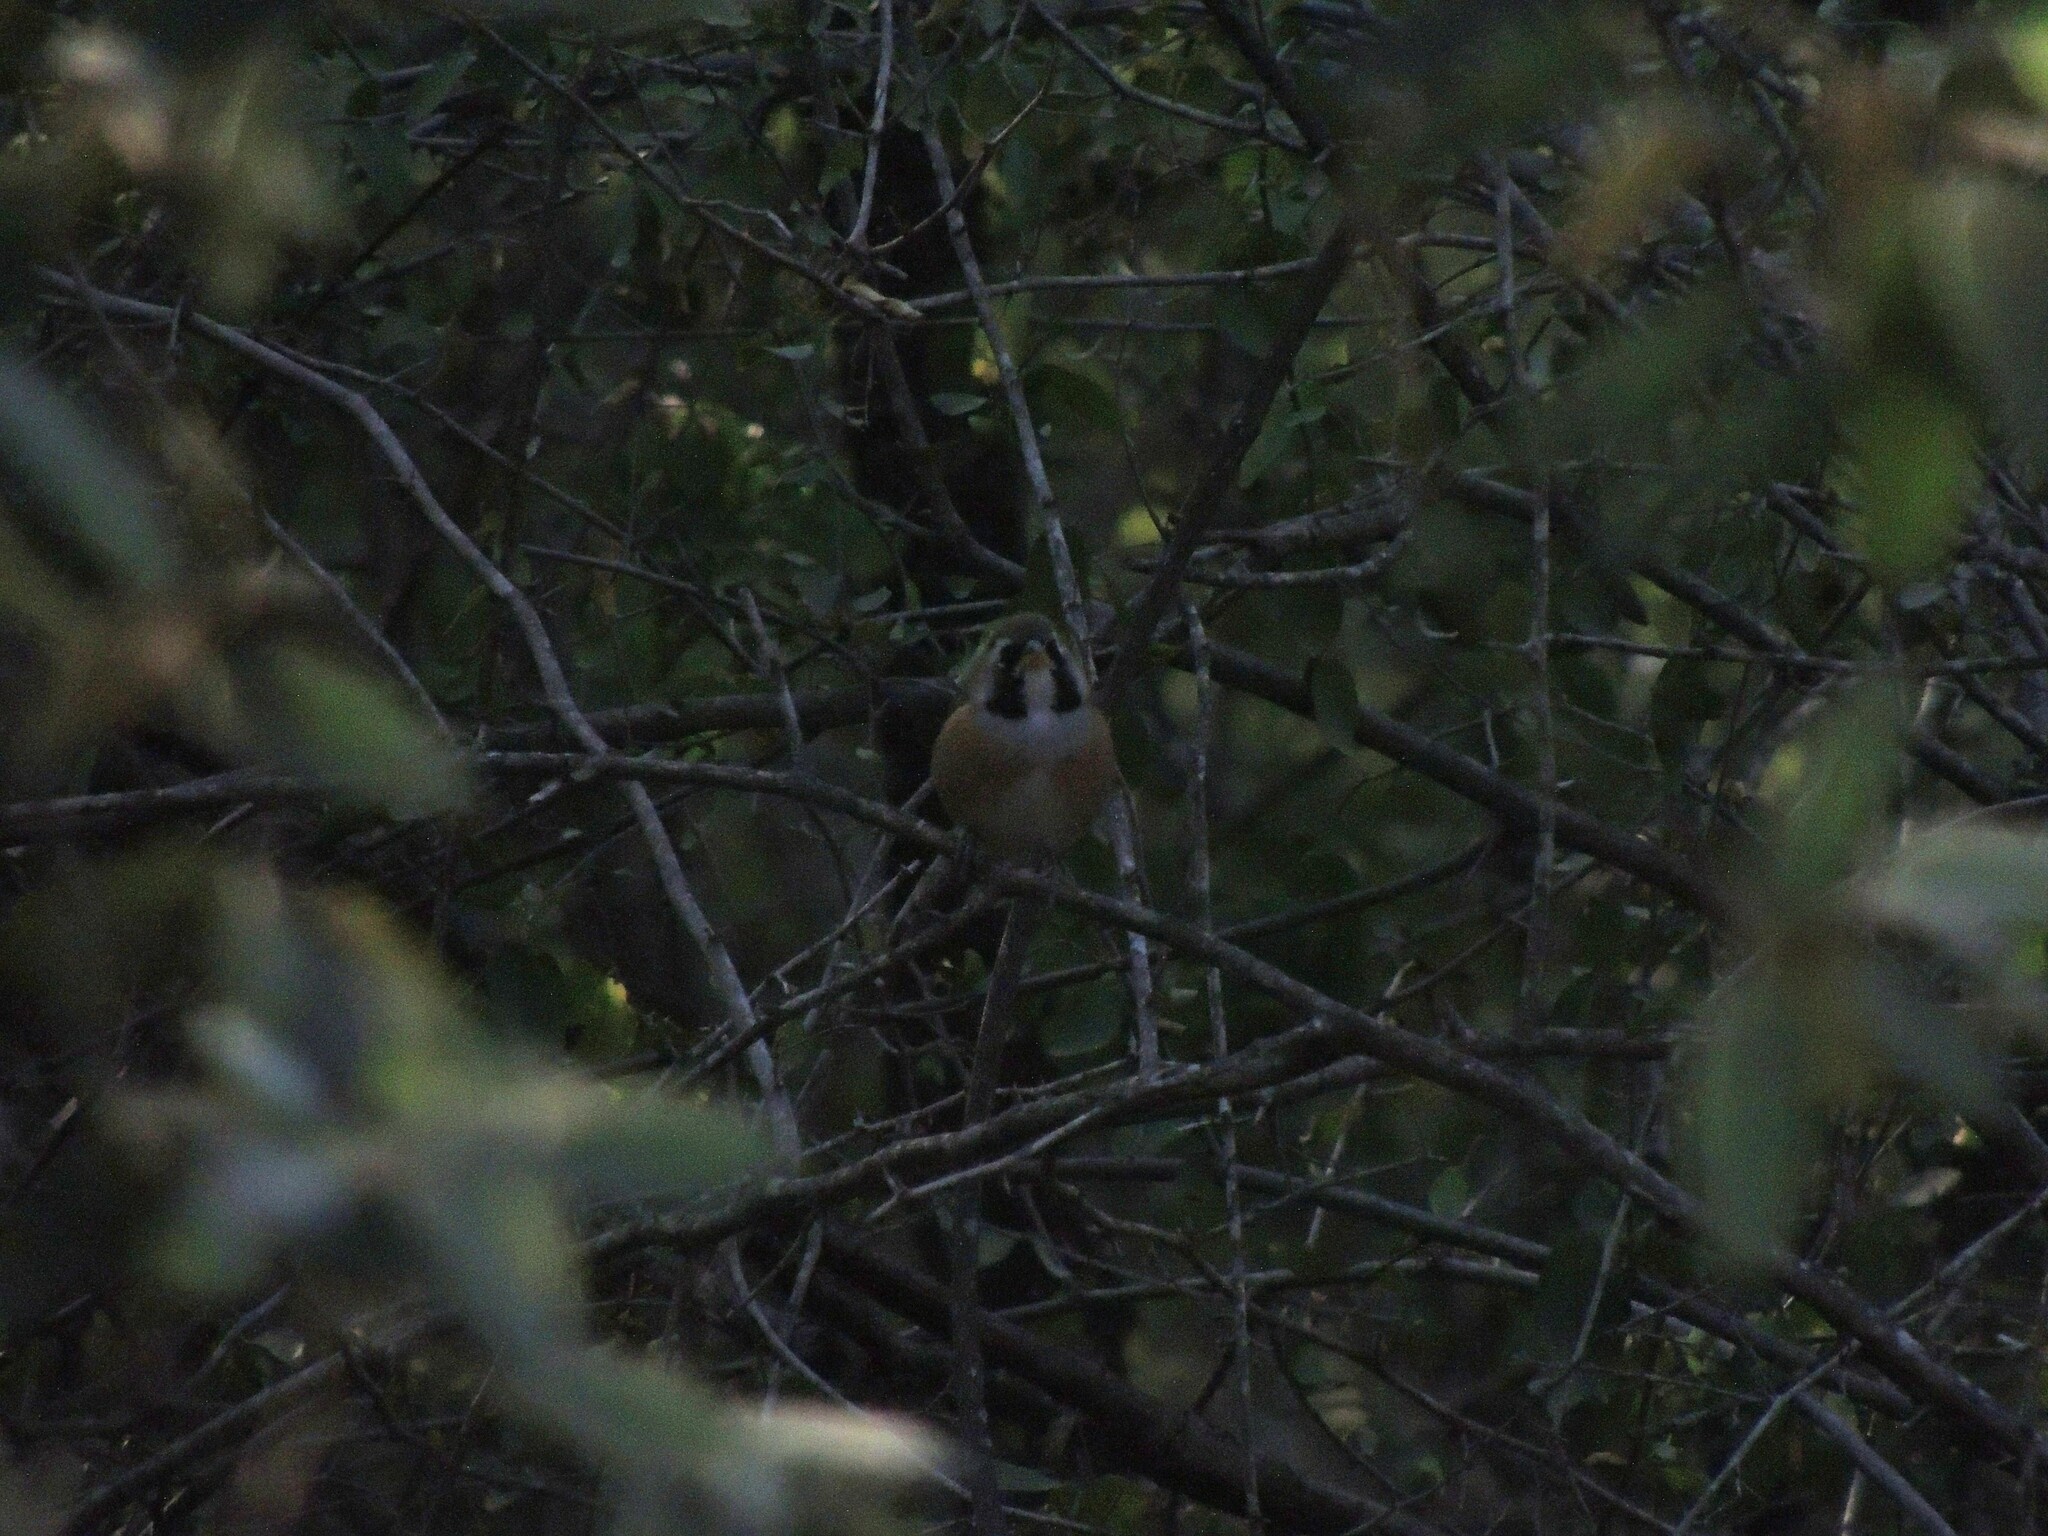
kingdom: Animalia
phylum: Chordata
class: Aves
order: Passeriformes
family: Thraupidae
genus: Saltatricula
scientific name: Saltatricula multicolor
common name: Many-colored chaco finch
